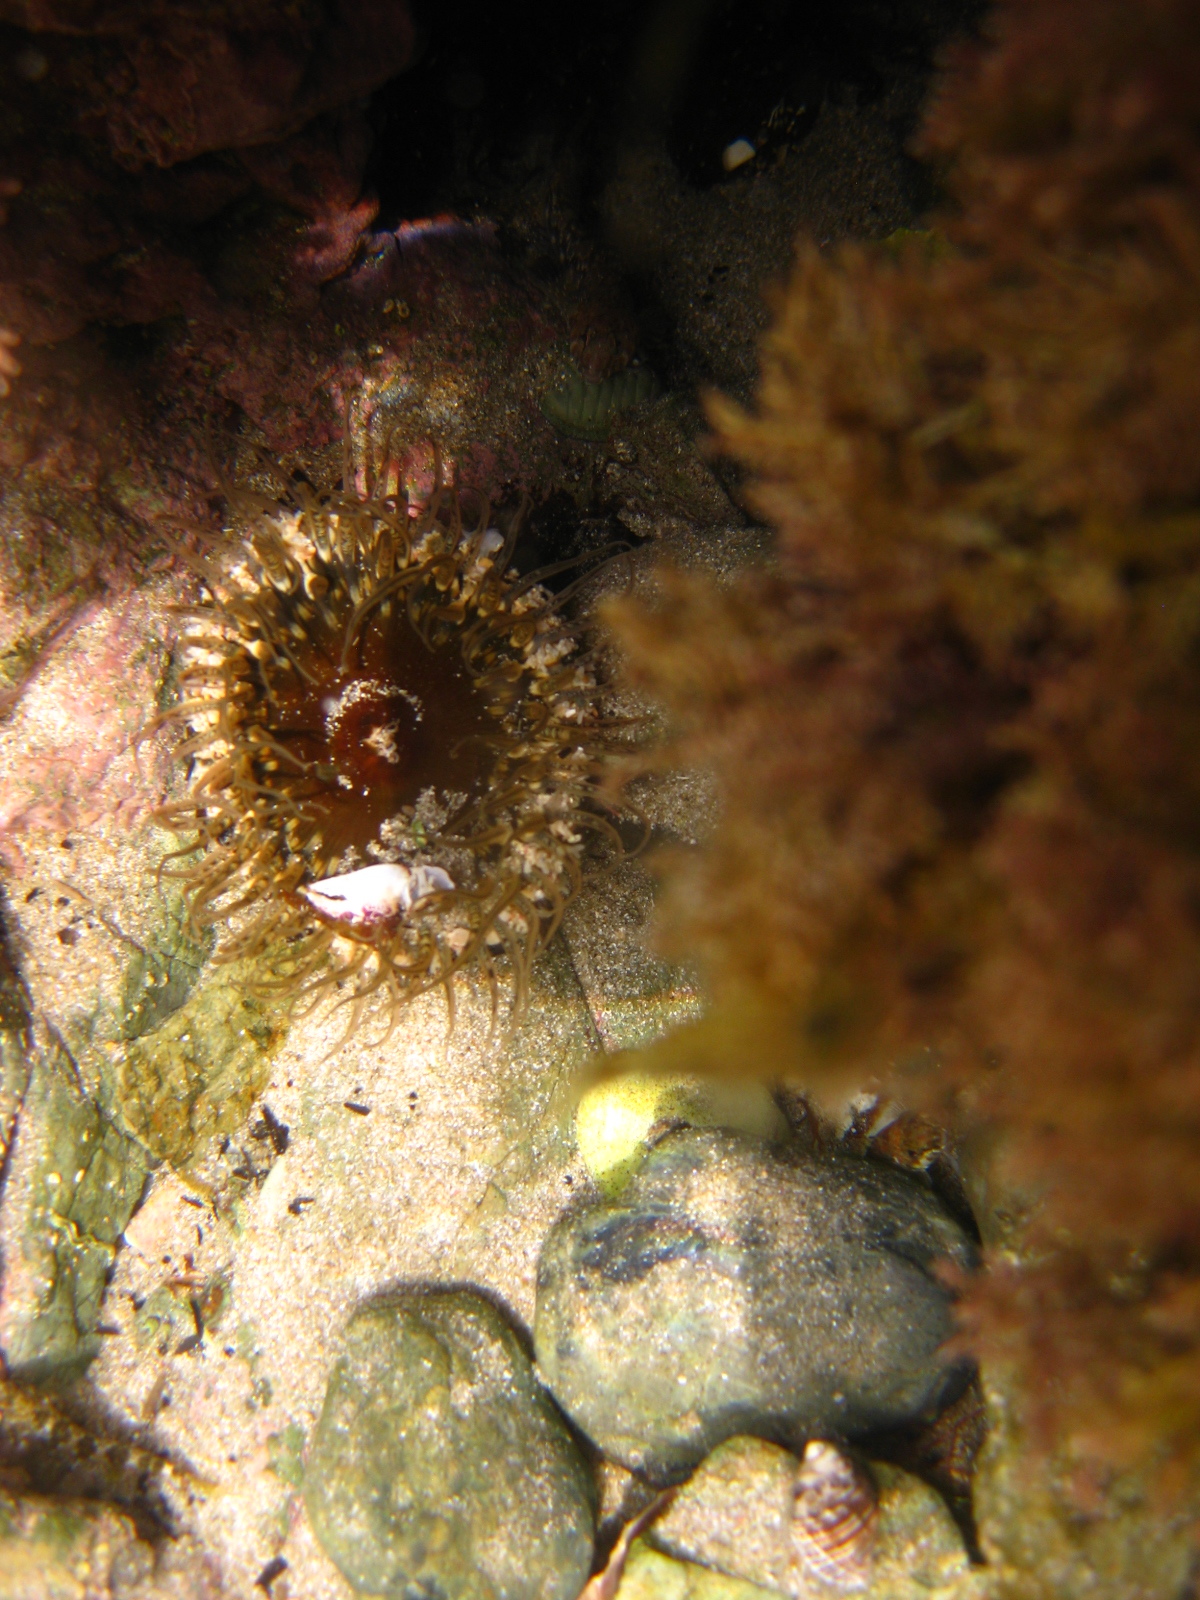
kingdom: Animalia
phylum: Cnidaria
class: Anthozoa
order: Actiniaria
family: Actiniidae
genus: Oulactis
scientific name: Oulactis muscosa
